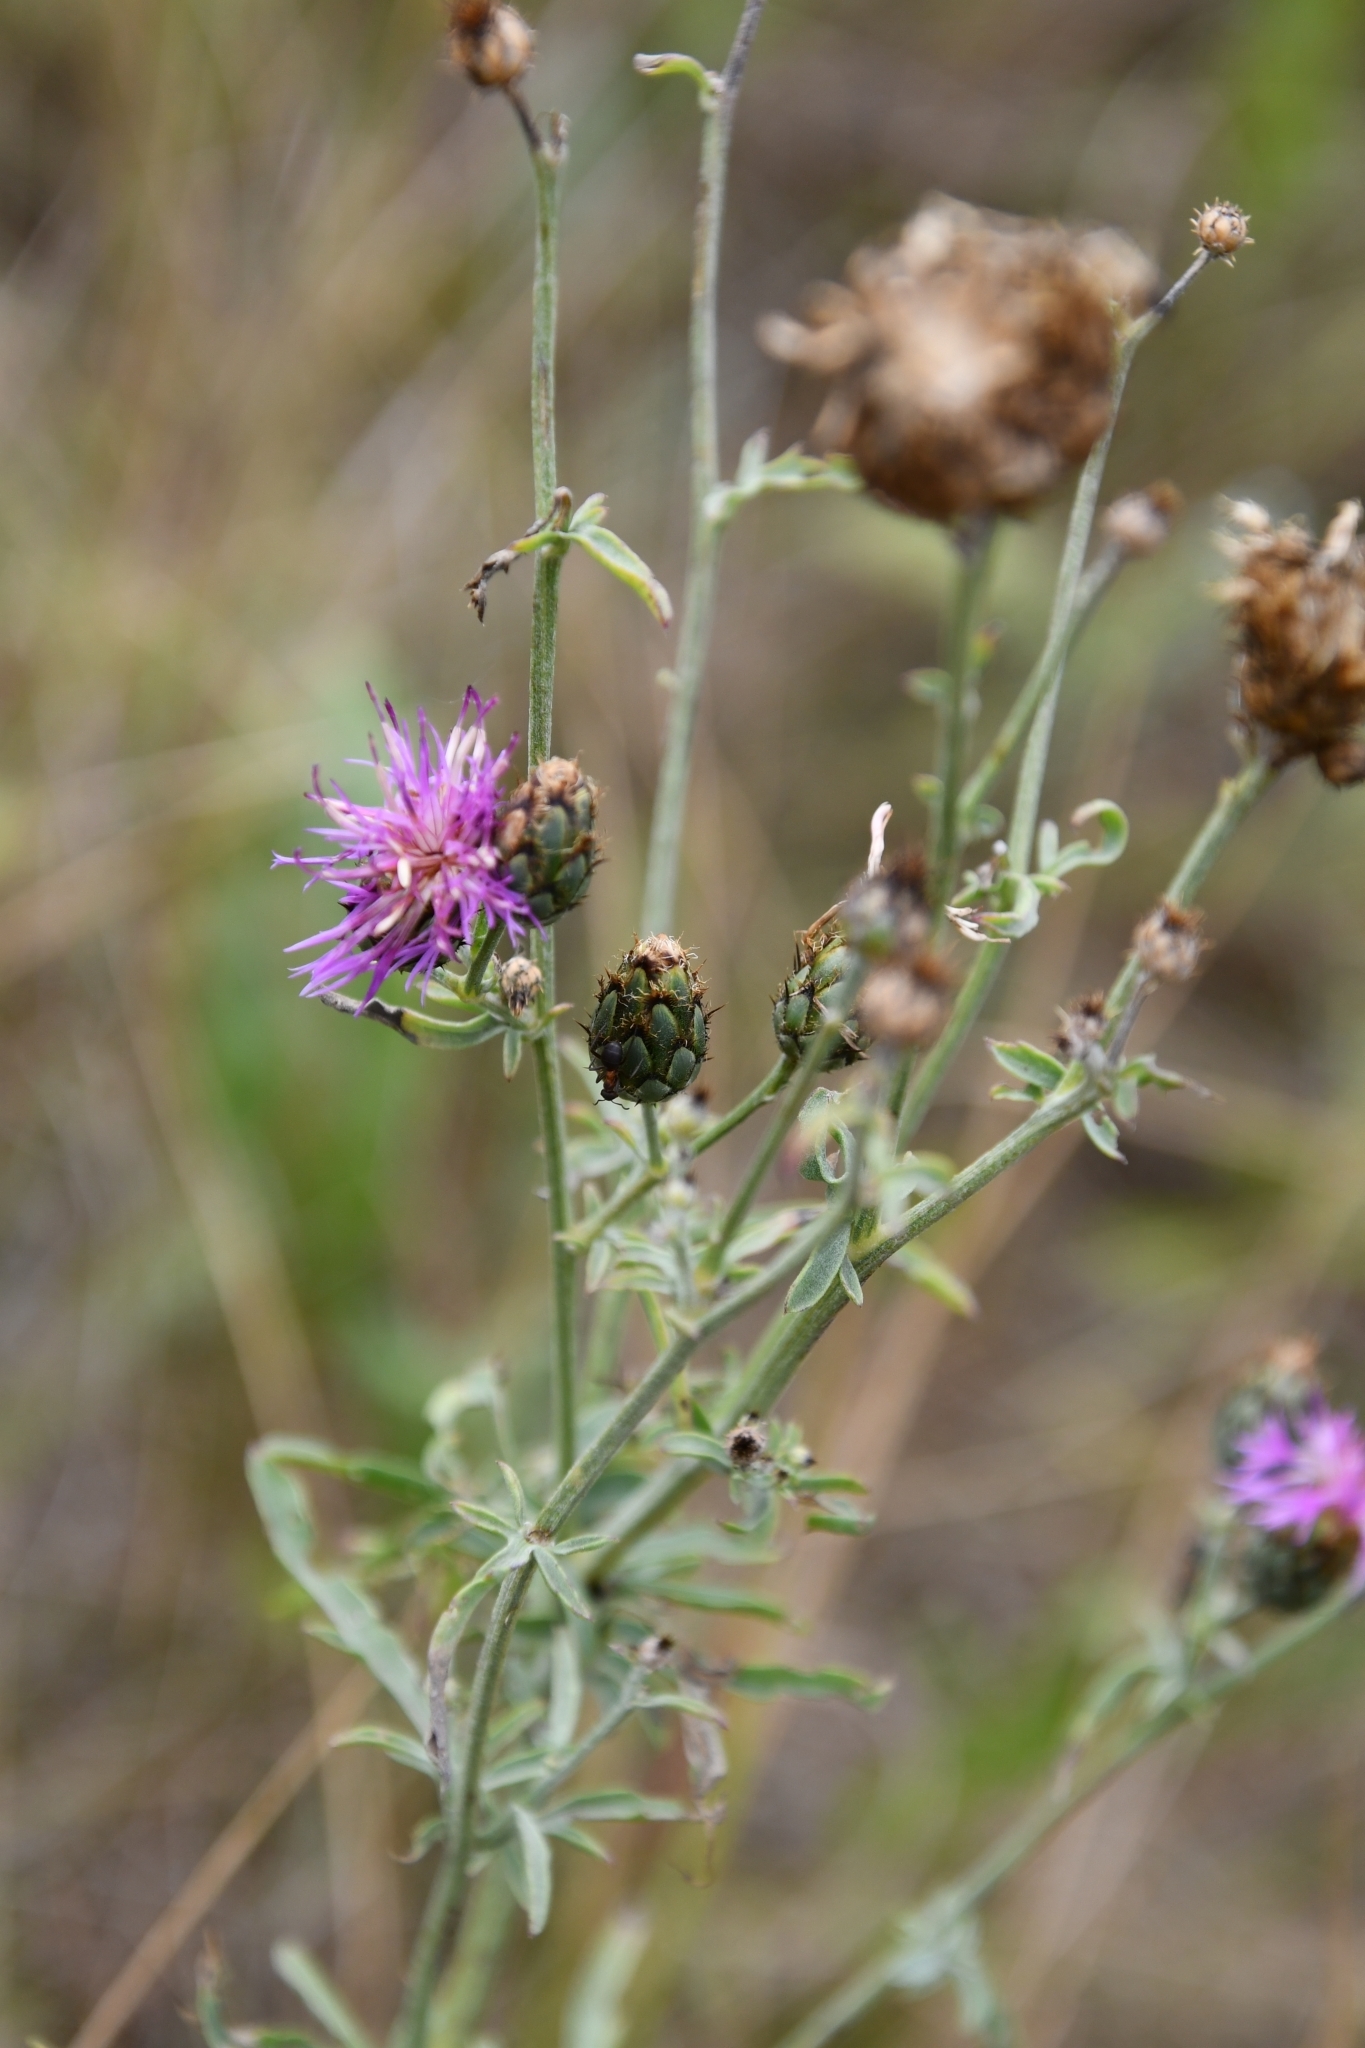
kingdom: Plantae
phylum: Tracheophyta
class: Magnoliopsida
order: Asterales
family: Asteraceae
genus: Centaurea
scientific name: Centaurea apiculata
